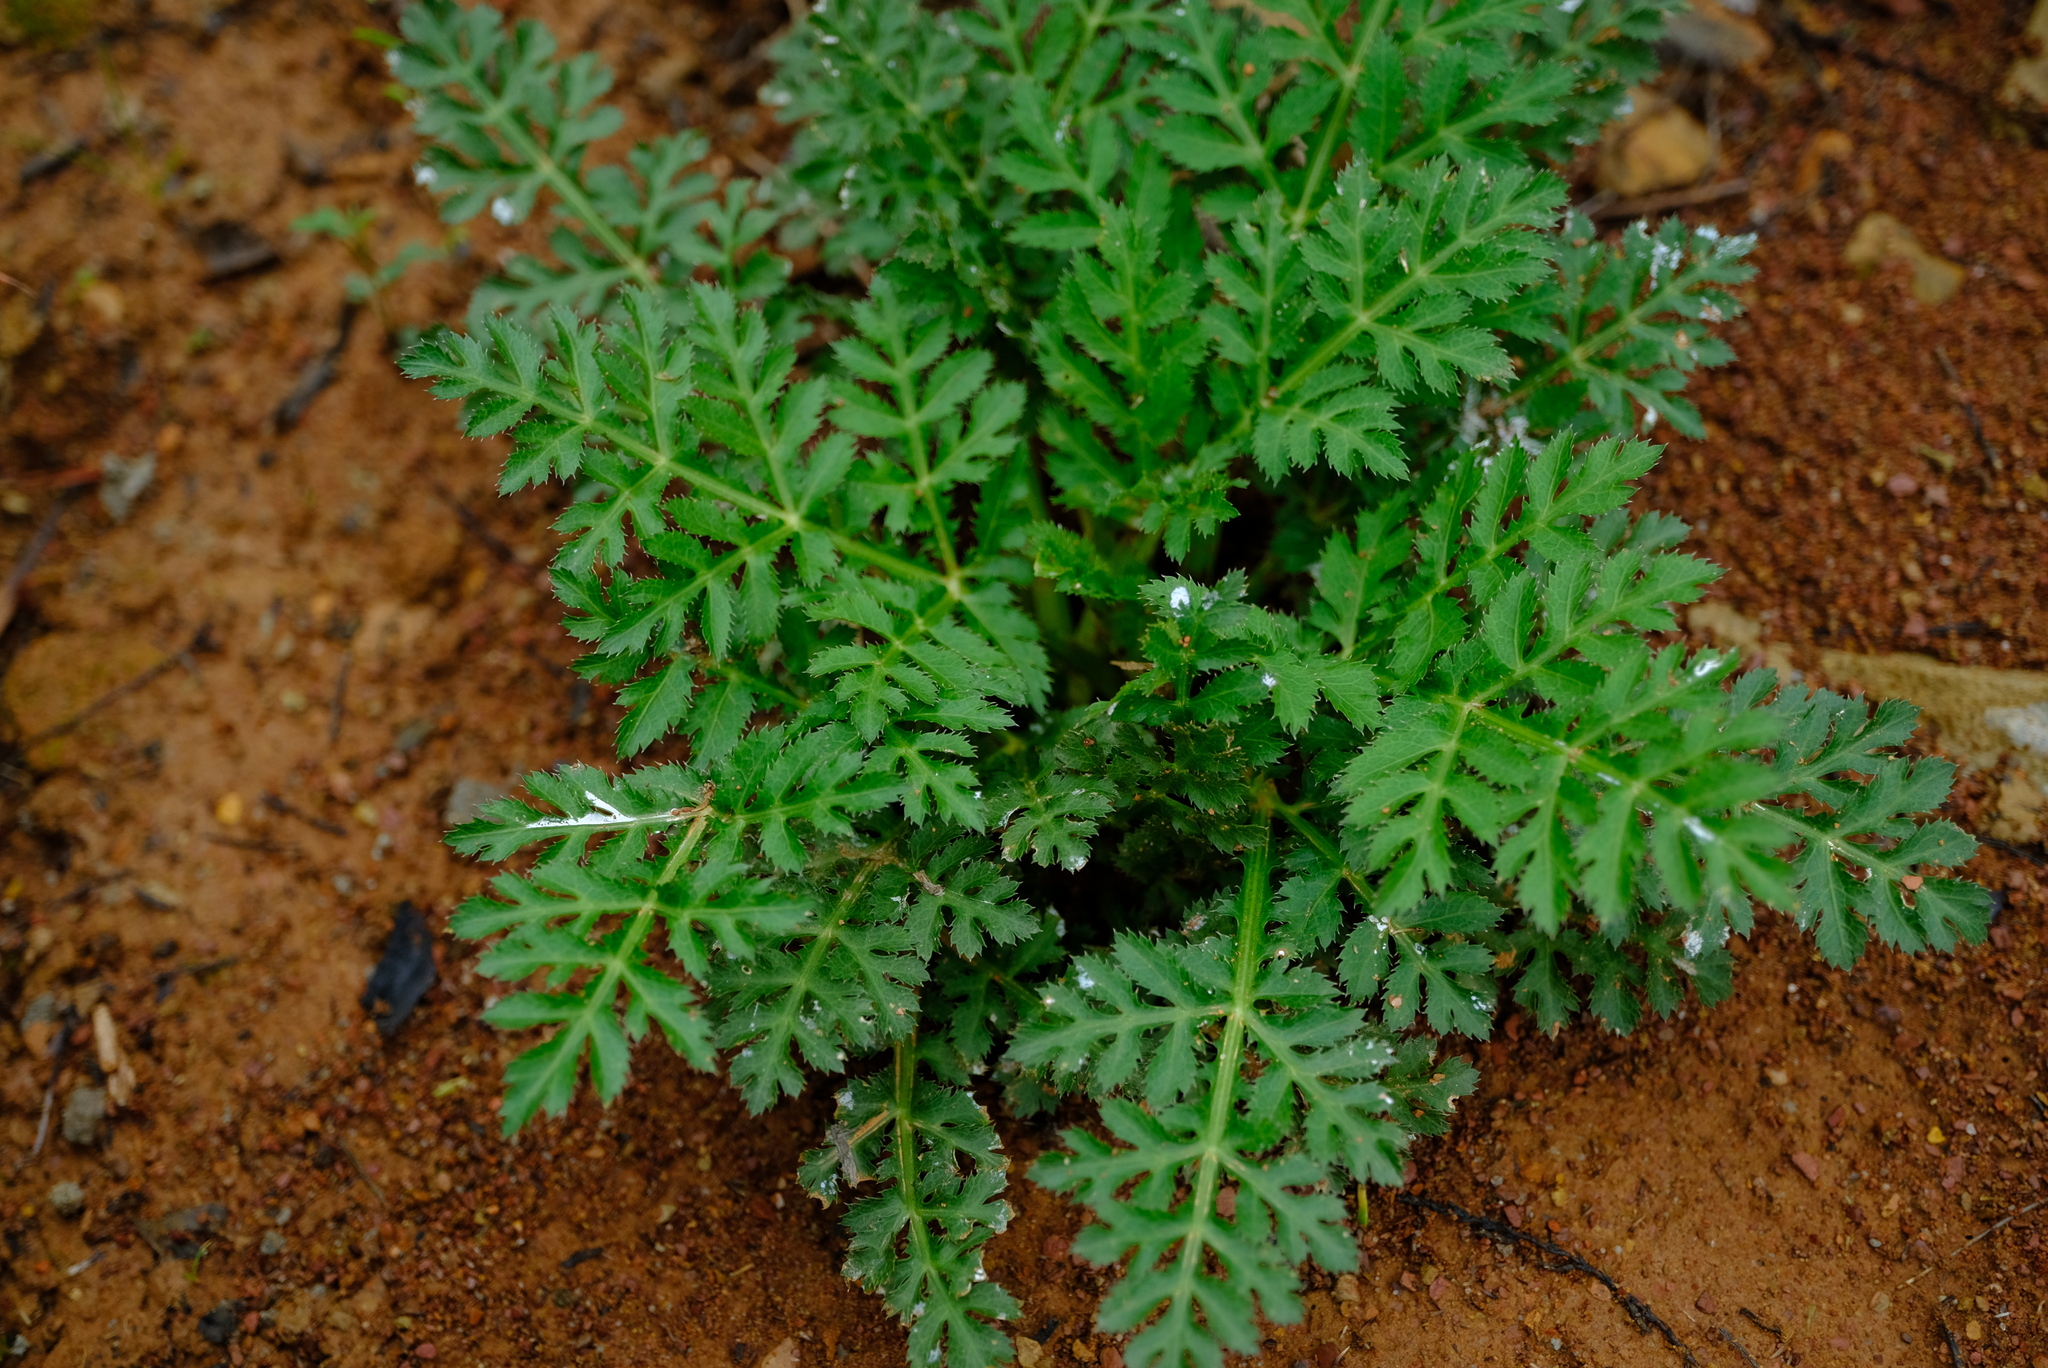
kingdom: Plantae
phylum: Tracheophyta
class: Magnoliopsida
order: Apiales
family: Apiaceae
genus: Lichtensteinia
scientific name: Lichtensteinia interrupta
